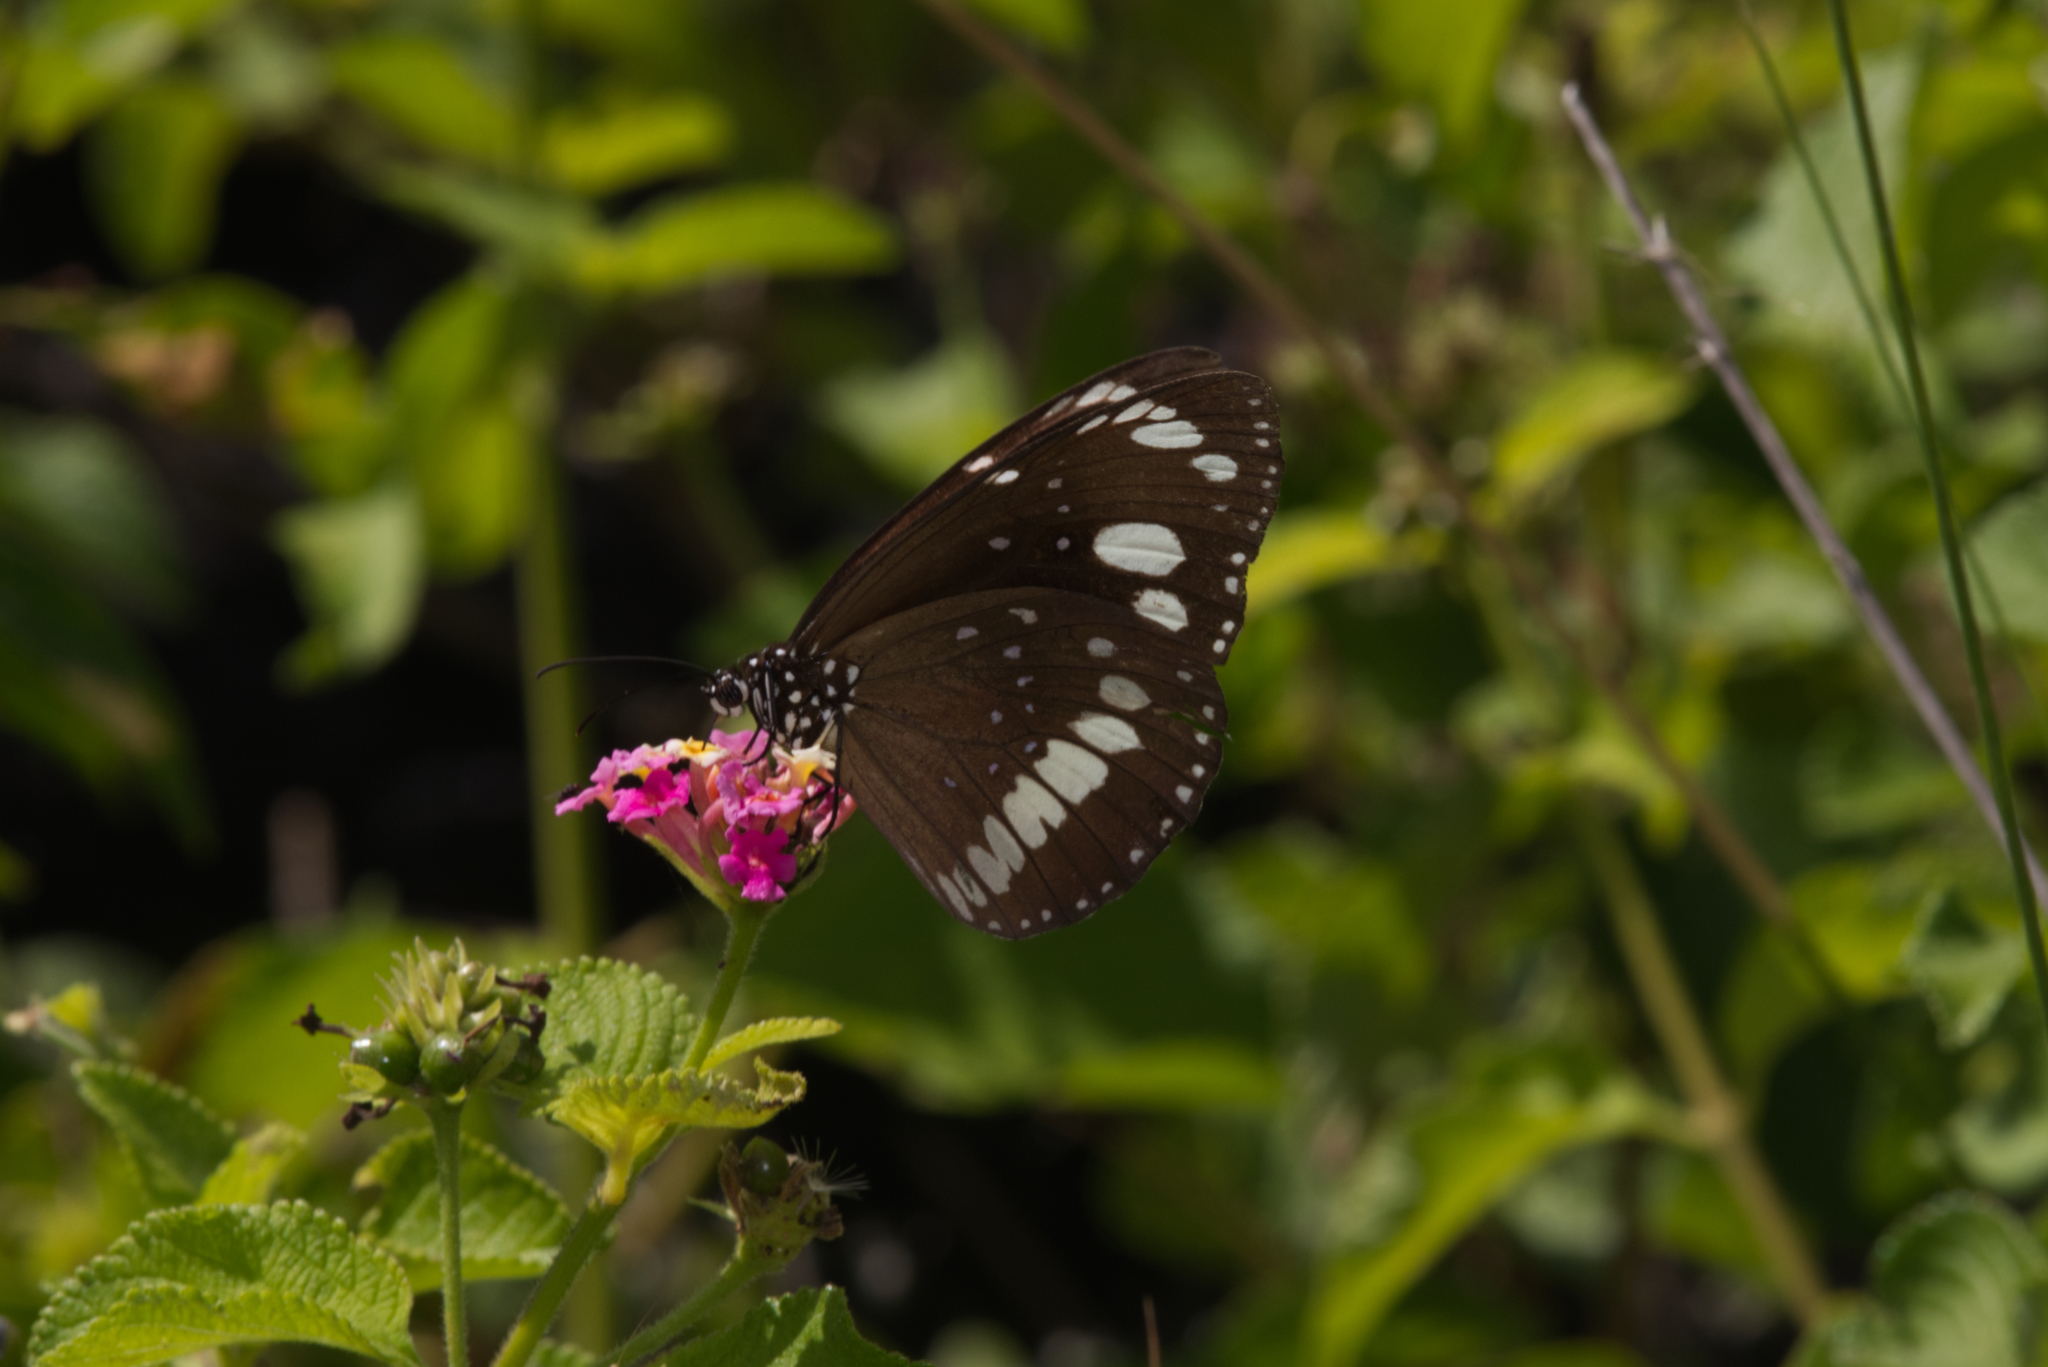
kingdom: Animalia
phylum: Arthropoda
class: Insecta
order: Lepidoptera
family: Nymphalidae
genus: Euploea
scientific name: Euploea core
